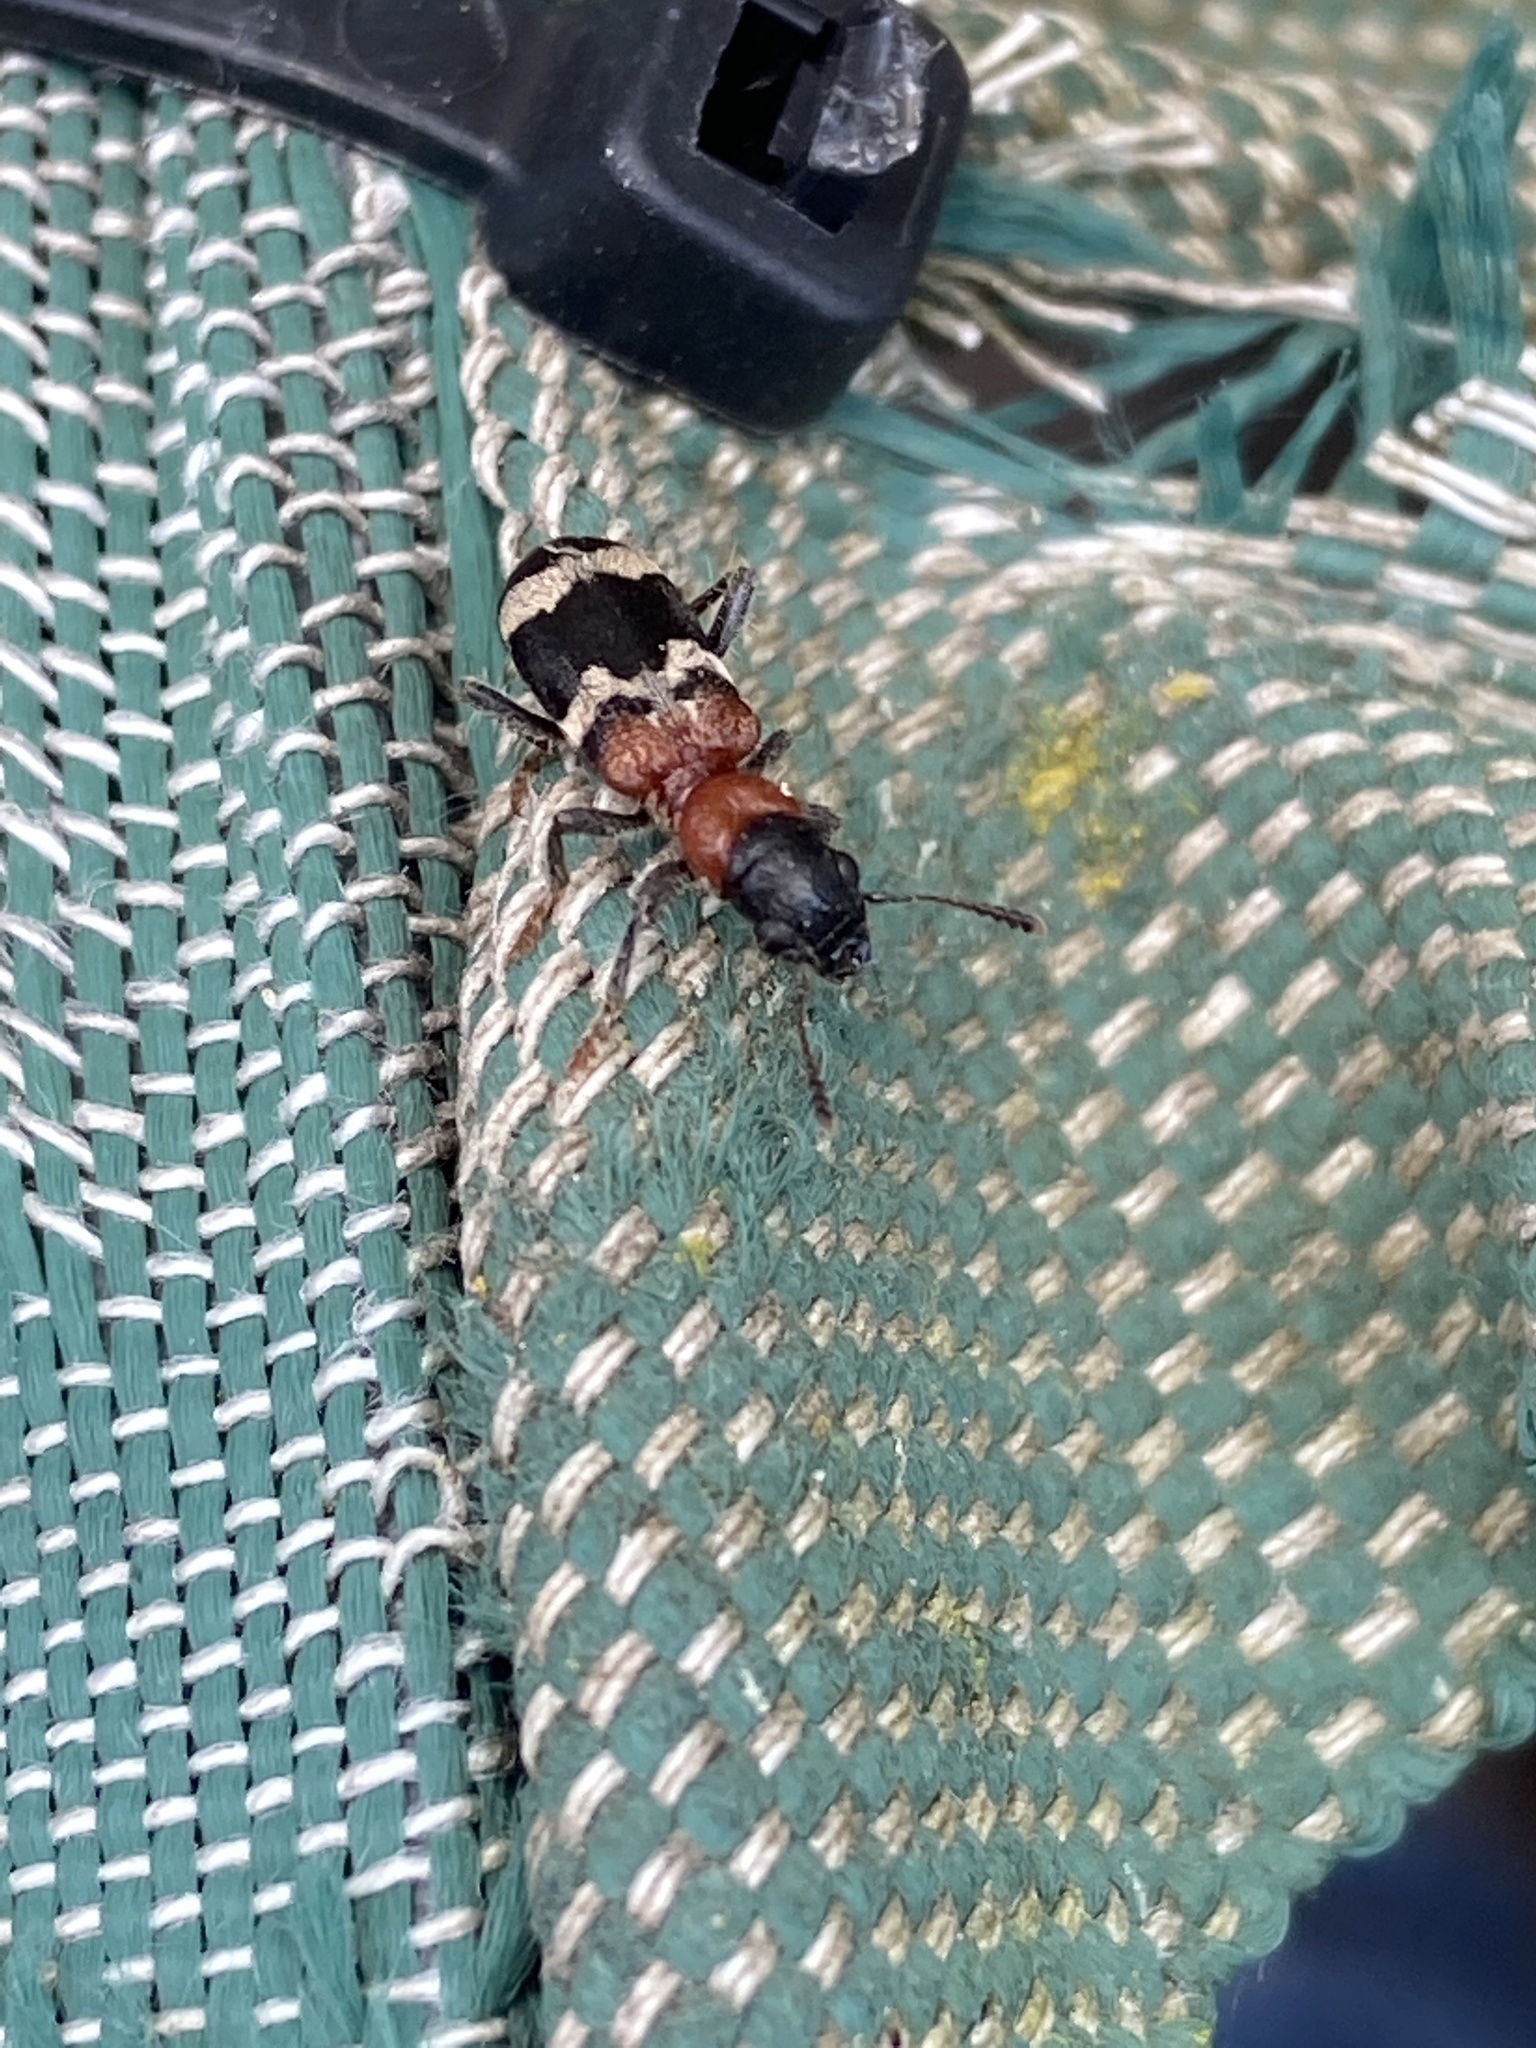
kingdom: Animalia
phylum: Arthropoda
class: Insecta
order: Coleoptera
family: Cleridae
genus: Thanasimus
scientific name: Thanasimus formicarius
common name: Ant beetle
